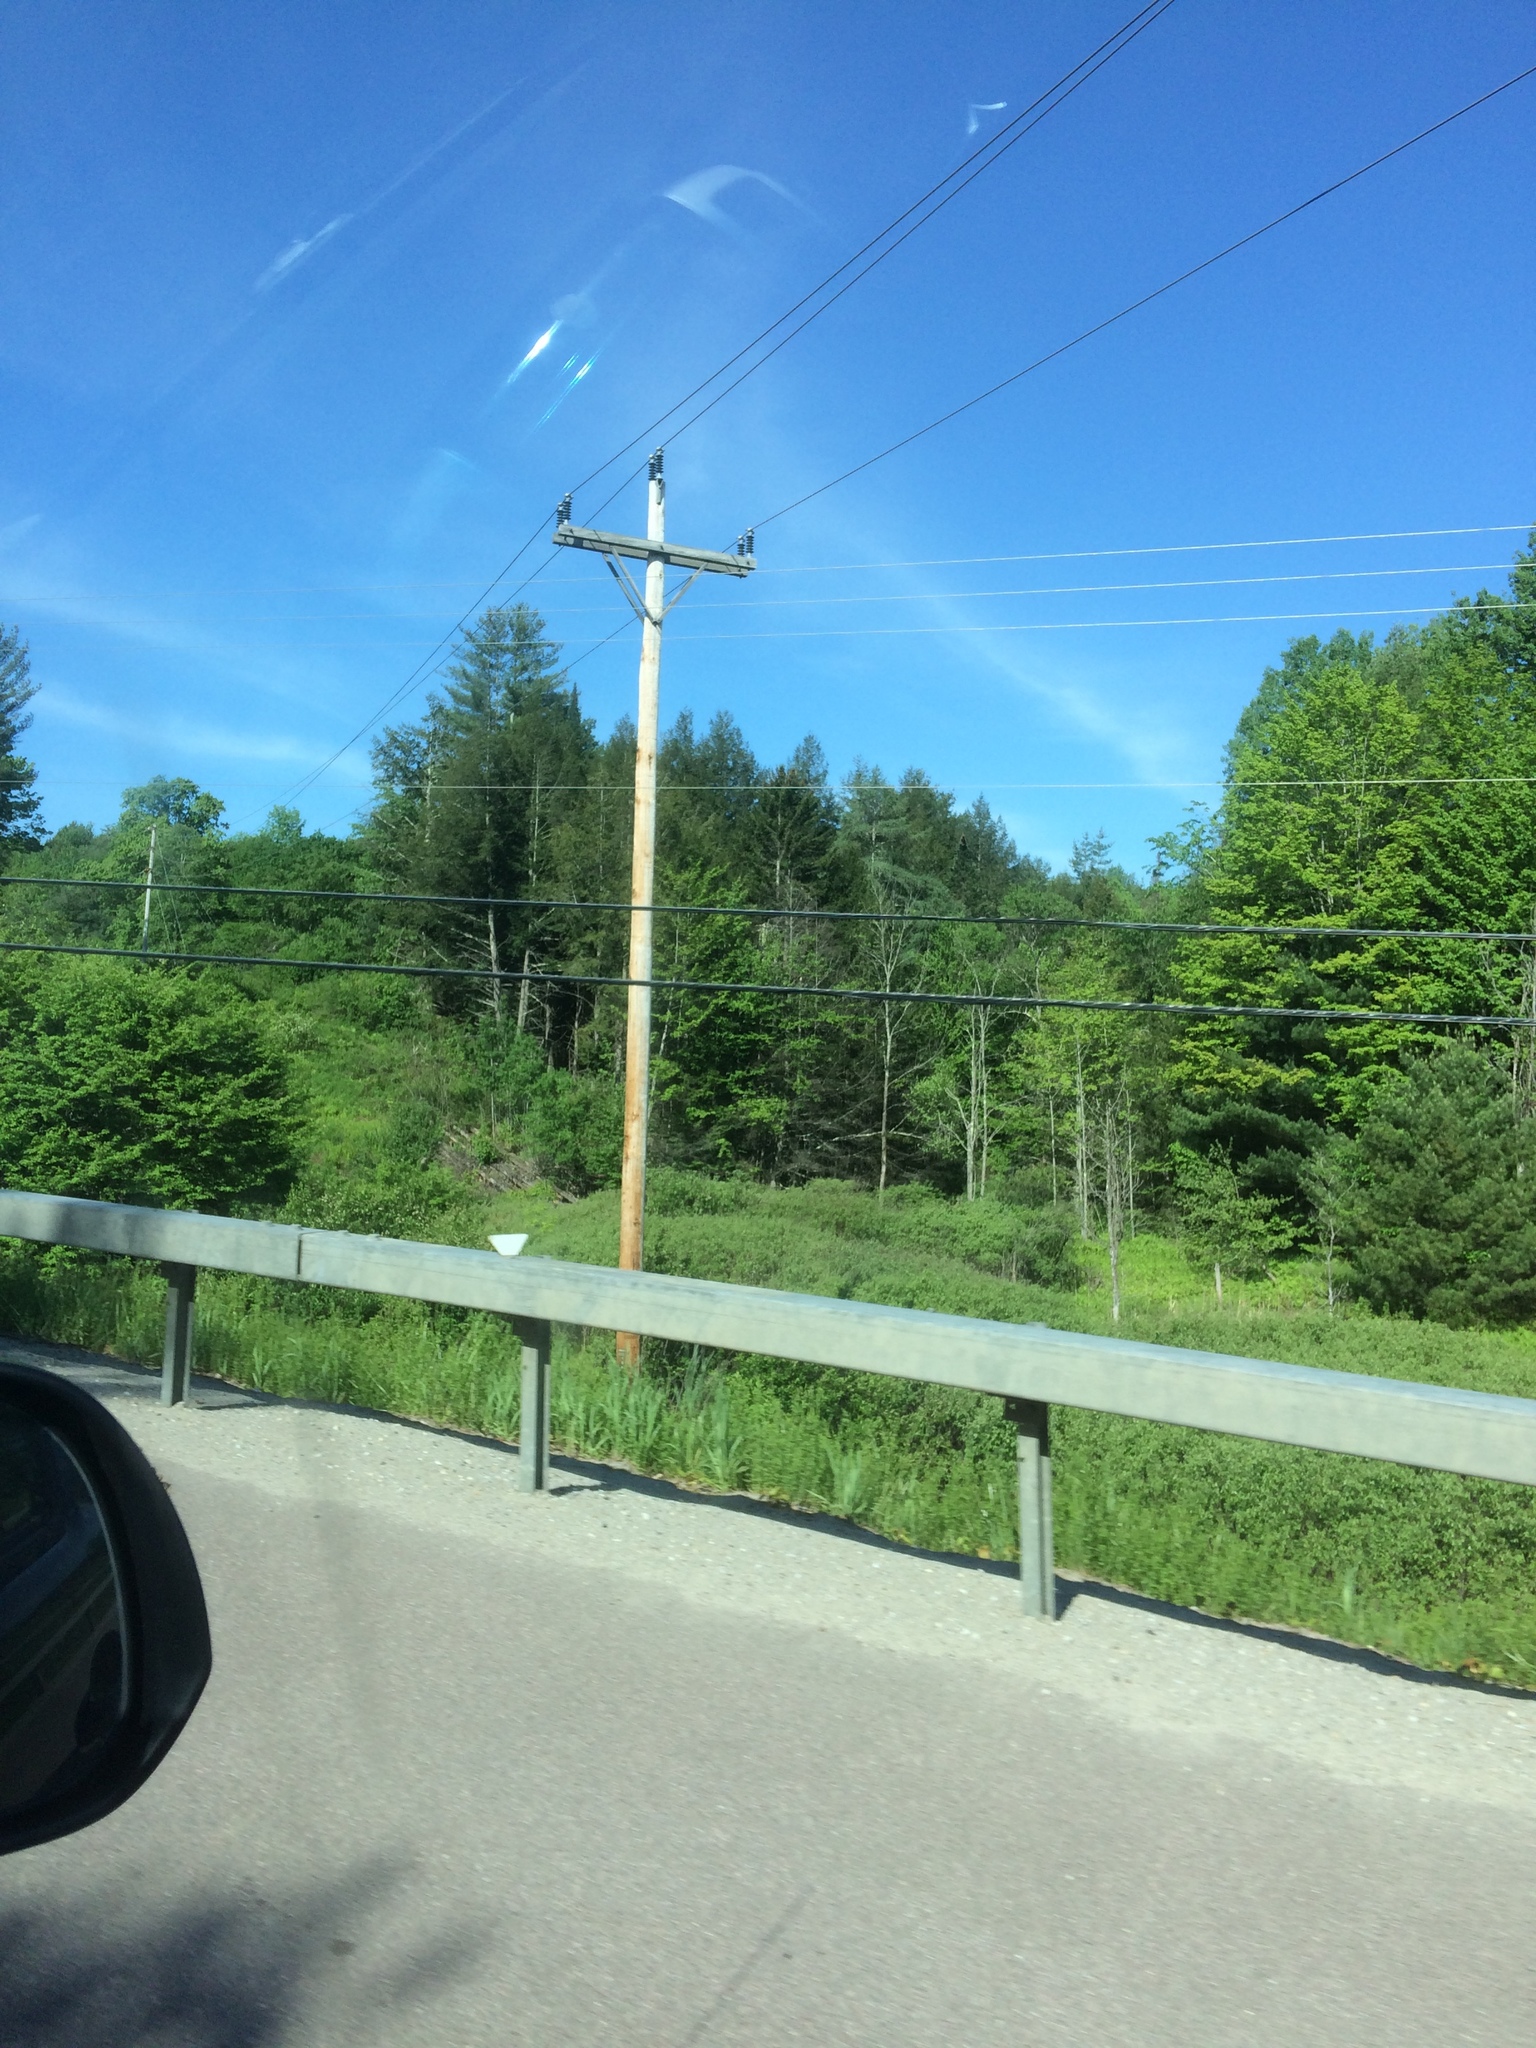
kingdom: Plantae
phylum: Tracheophyta
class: Pinopsida
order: Pinales
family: Pinaceae
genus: Tsuga
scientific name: Tsuga canadensis
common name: Eastern hemlock
